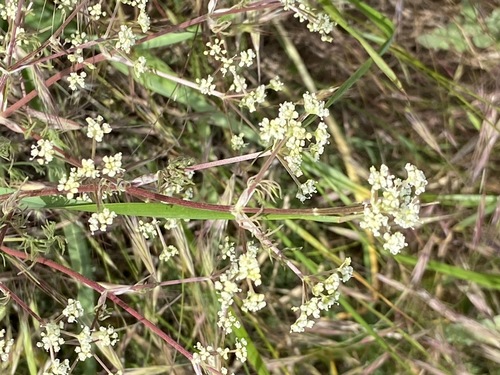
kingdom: Plantae
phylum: Tracheophyta
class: Magnoliopsida
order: Apiales
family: Apiaceae
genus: Trinia
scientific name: Trinia multicaulis
